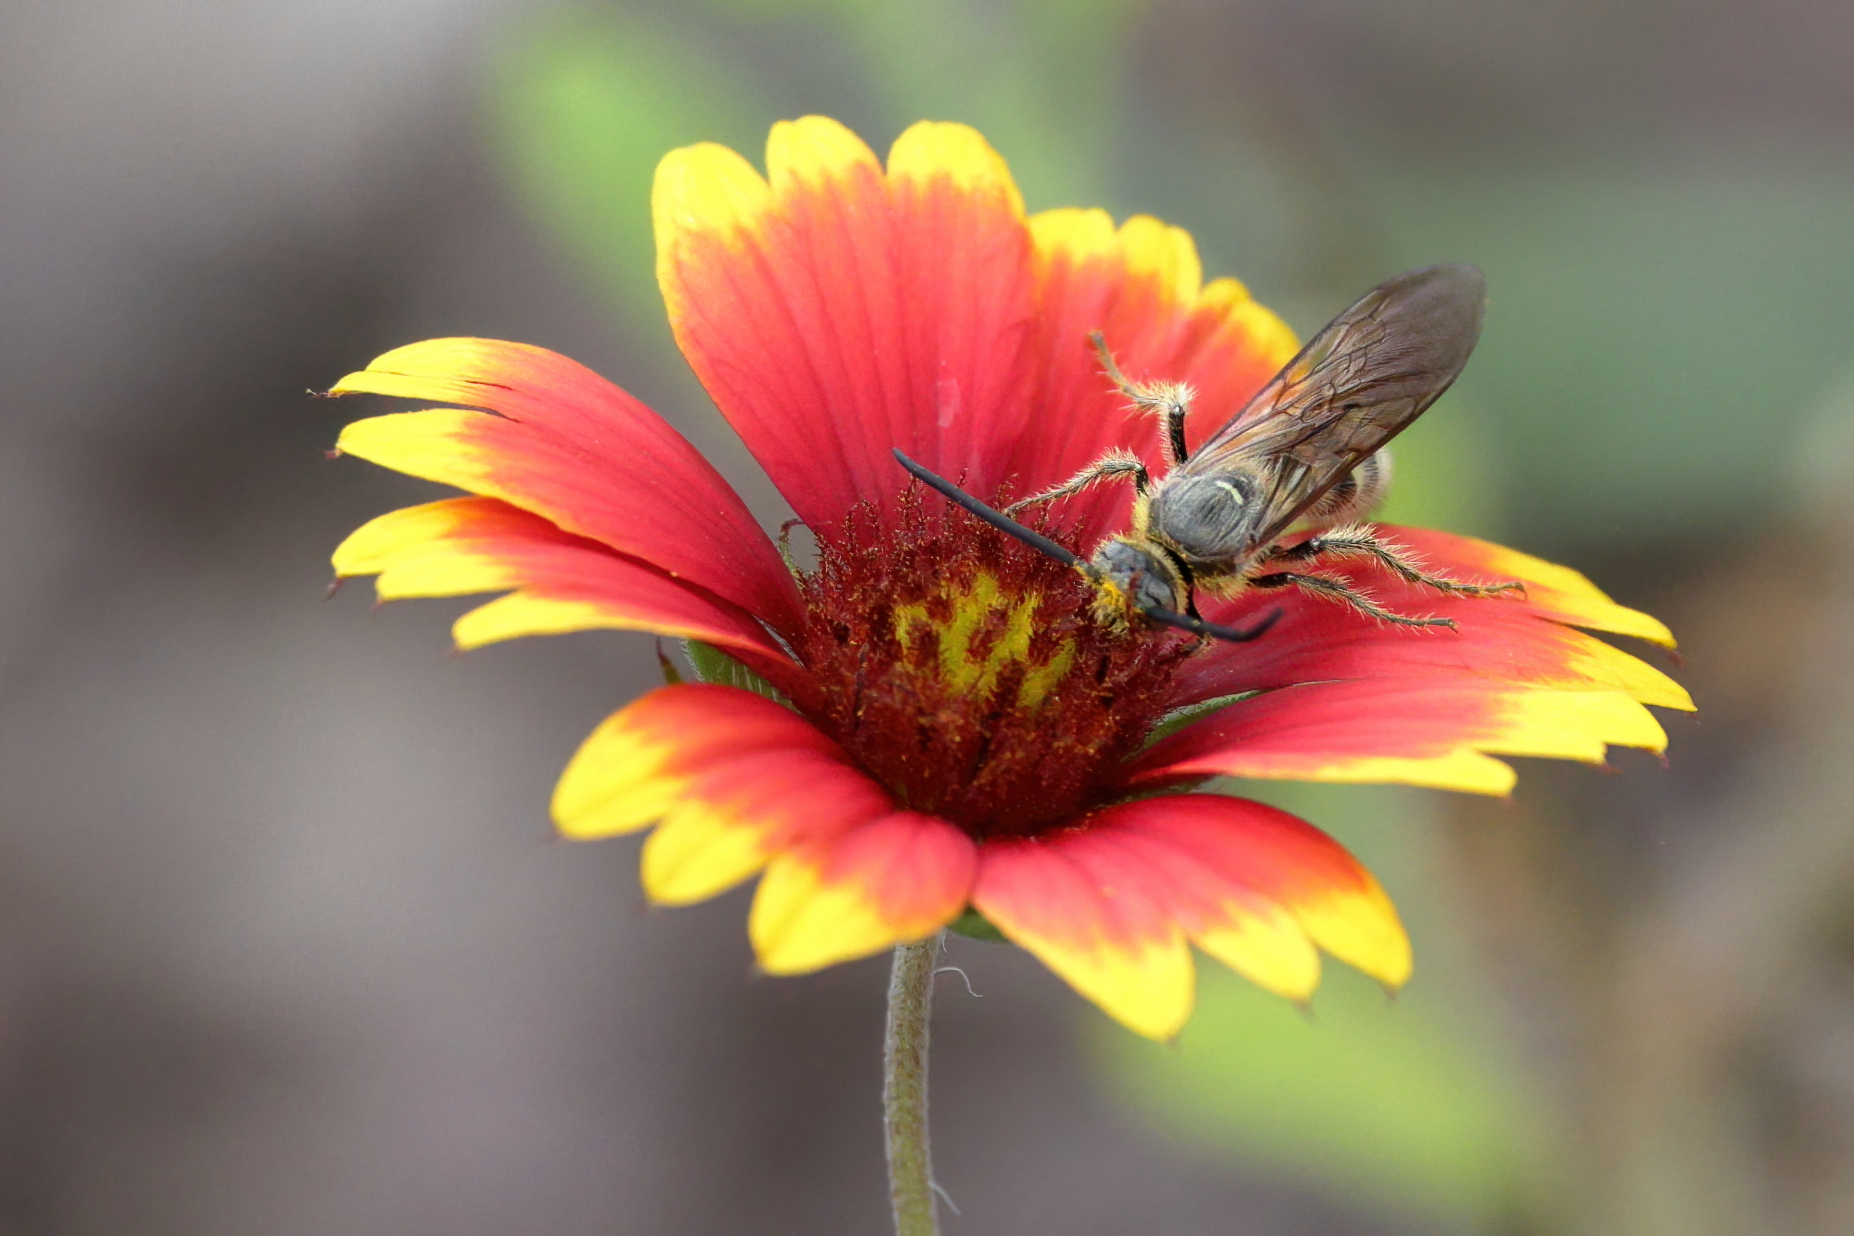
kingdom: Animalia
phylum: Arthropoda
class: Insecta
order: Hymenoptera
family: Scoliidae
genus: Dielis
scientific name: Dielis
